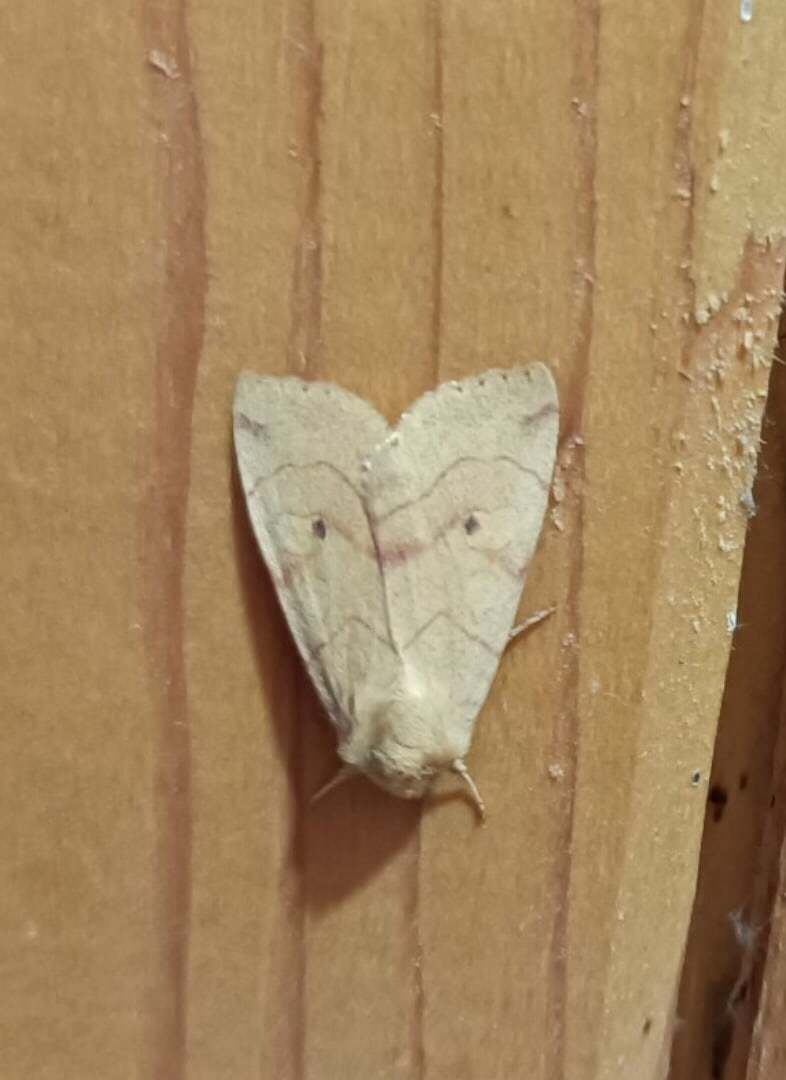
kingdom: Animalia
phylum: Arthropoda
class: Insecta
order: Lepidoptera
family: Noctuidae
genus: Enargia
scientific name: Enargia paleacea
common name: Angle-striped sallow
